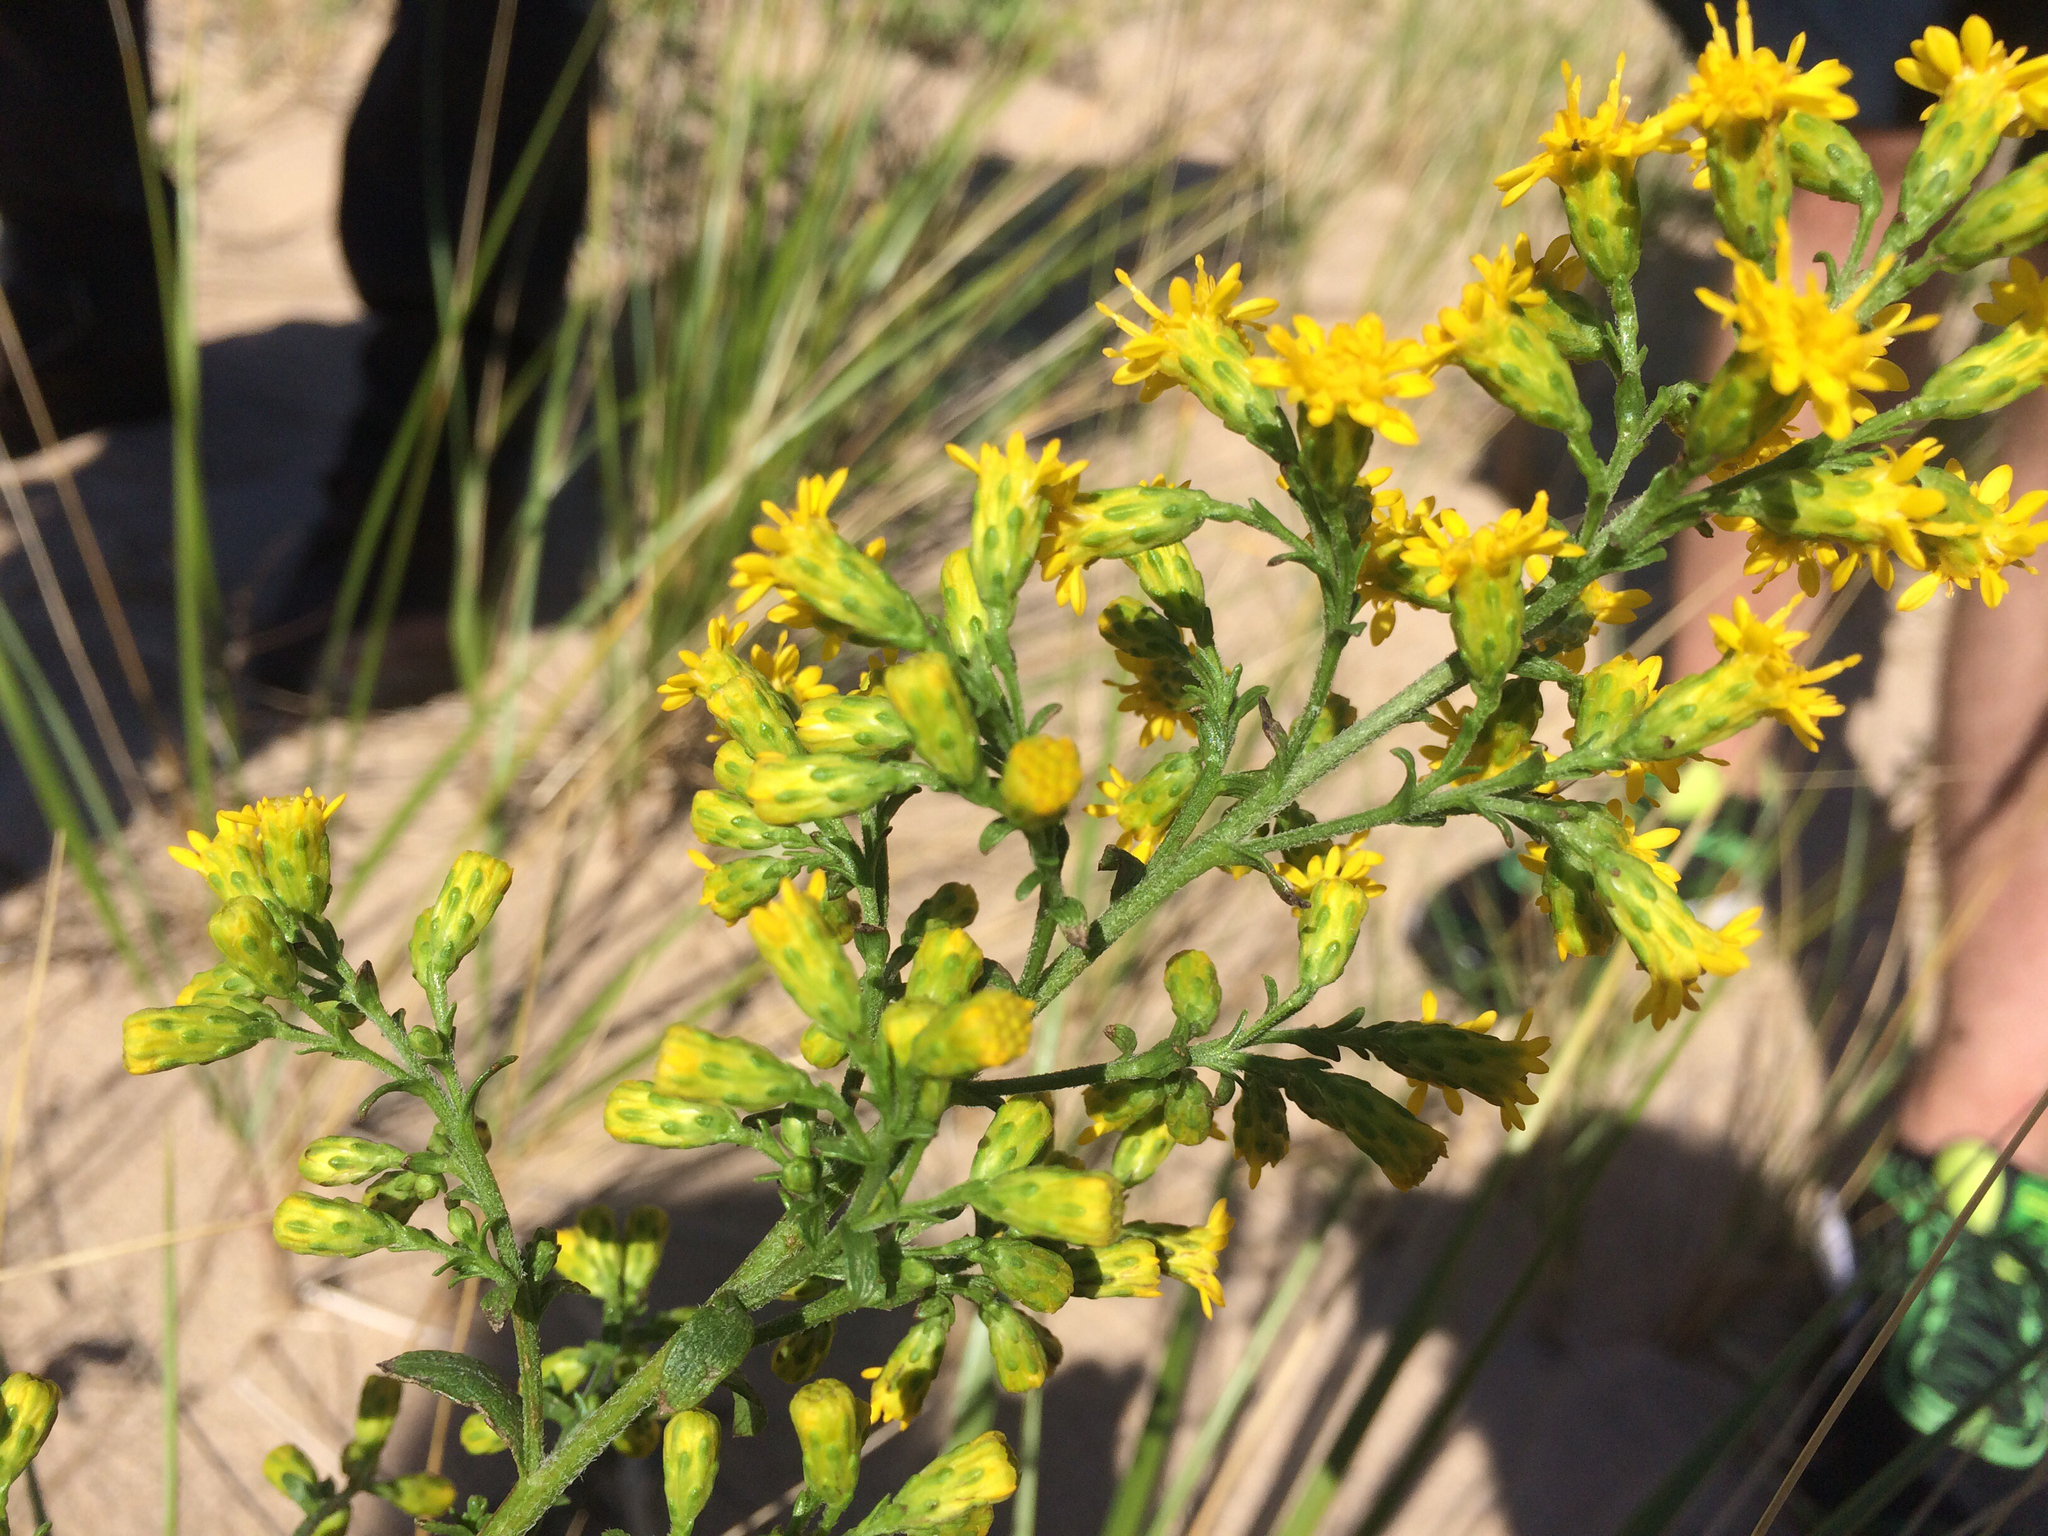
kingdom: Plantae
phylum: Tracheophyta
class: Magnoliopsida
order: Asterales
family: Asteraceae
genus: Solidago
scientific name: Solidago simplex
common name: Sticky goldenrod
